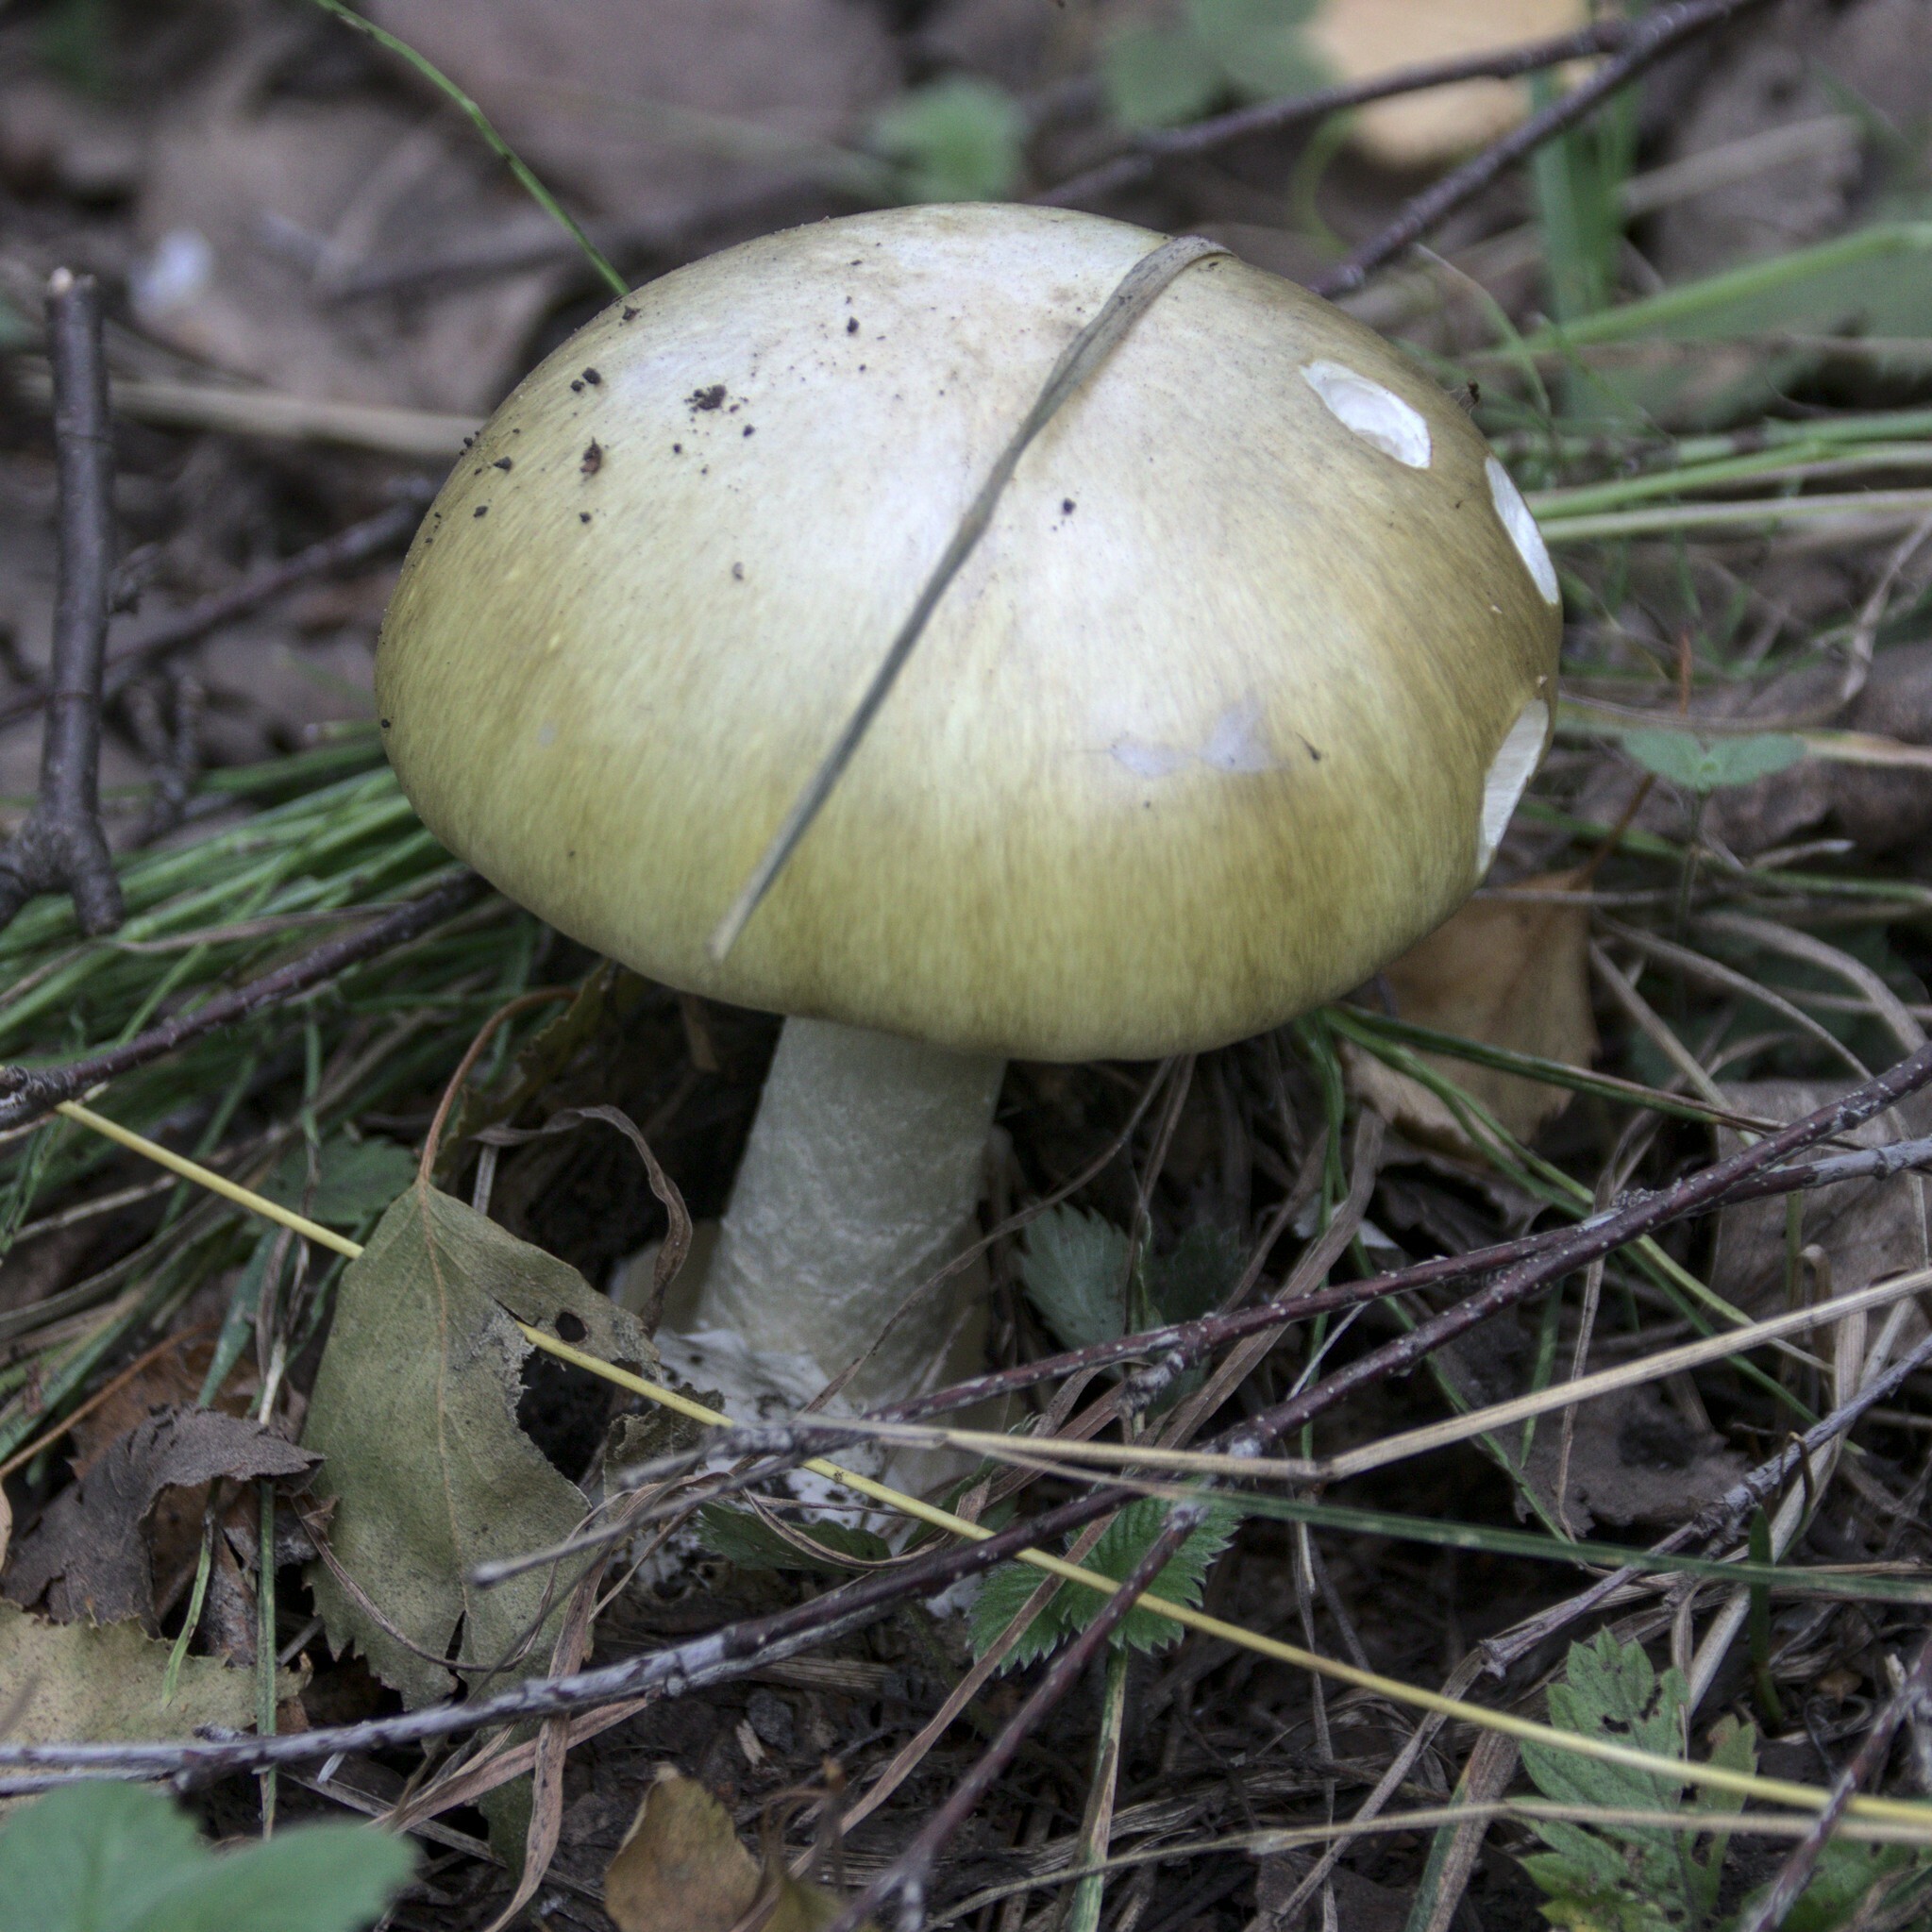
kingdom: Fungi
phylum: Basidiomycota
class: Agaricomycetes
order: Agaricales
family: Amanitaceae
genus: Amanita
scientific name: Amanita phalloides
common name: Death cap
